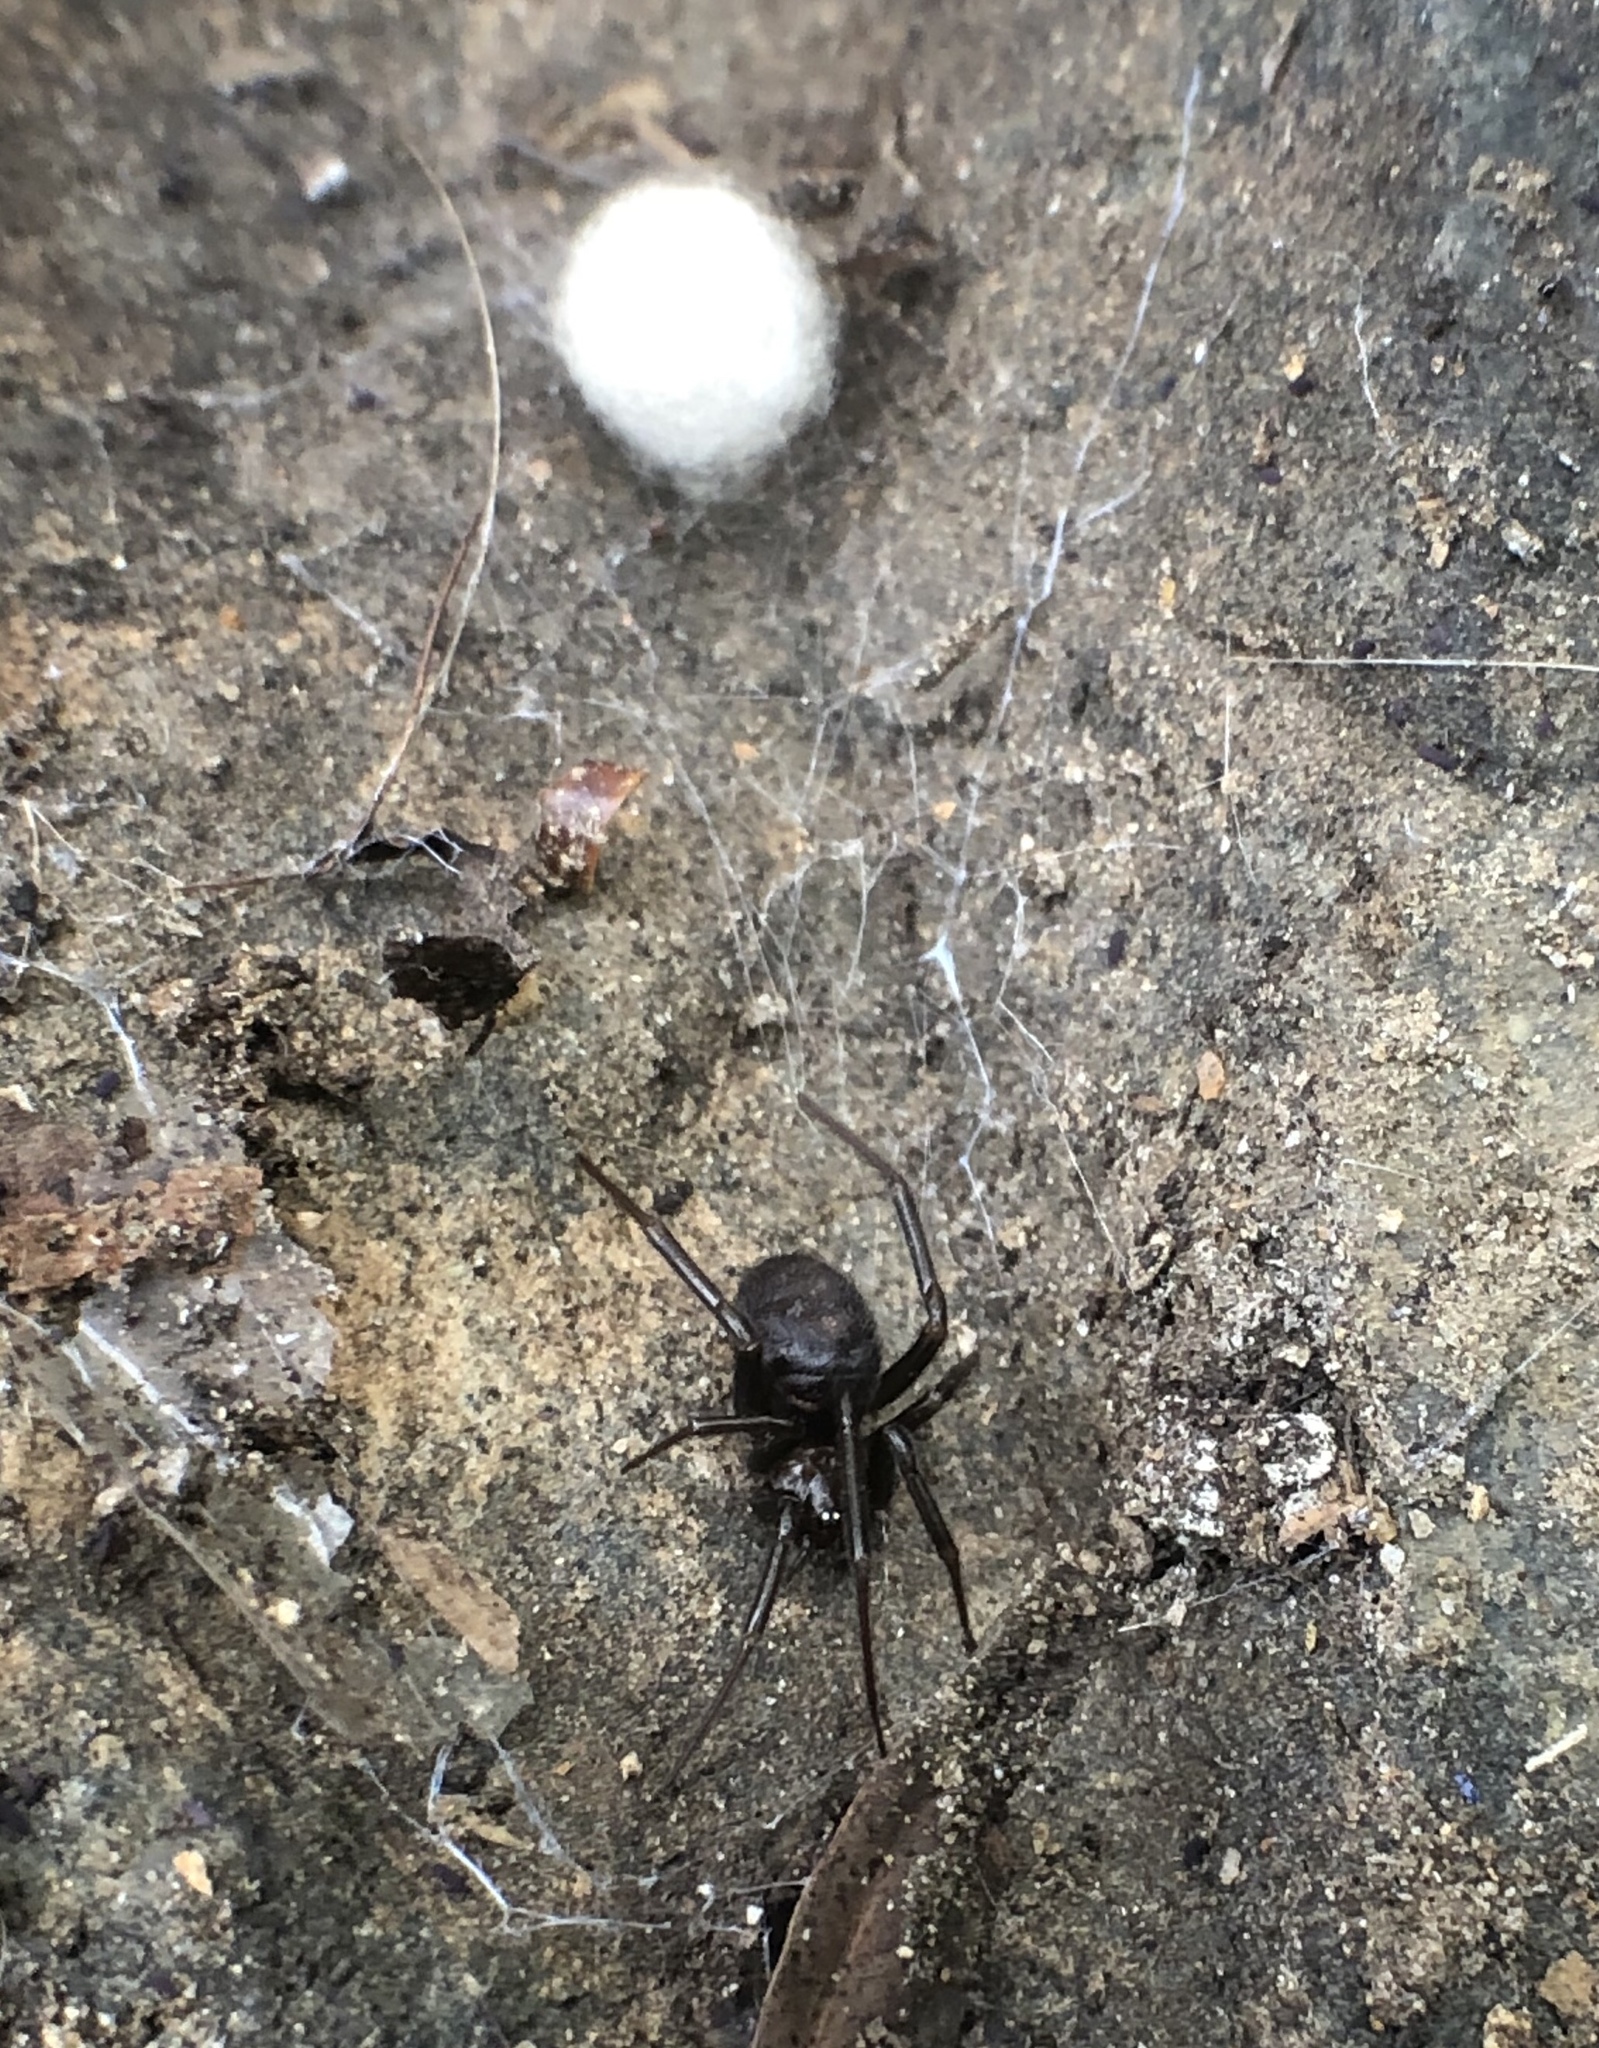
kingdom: Animalia
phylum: Arthropoda
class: Arachnida
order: Araneae
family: Theridiidae
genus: Steatoda
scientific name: Steatoda grossa
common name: False black widow
